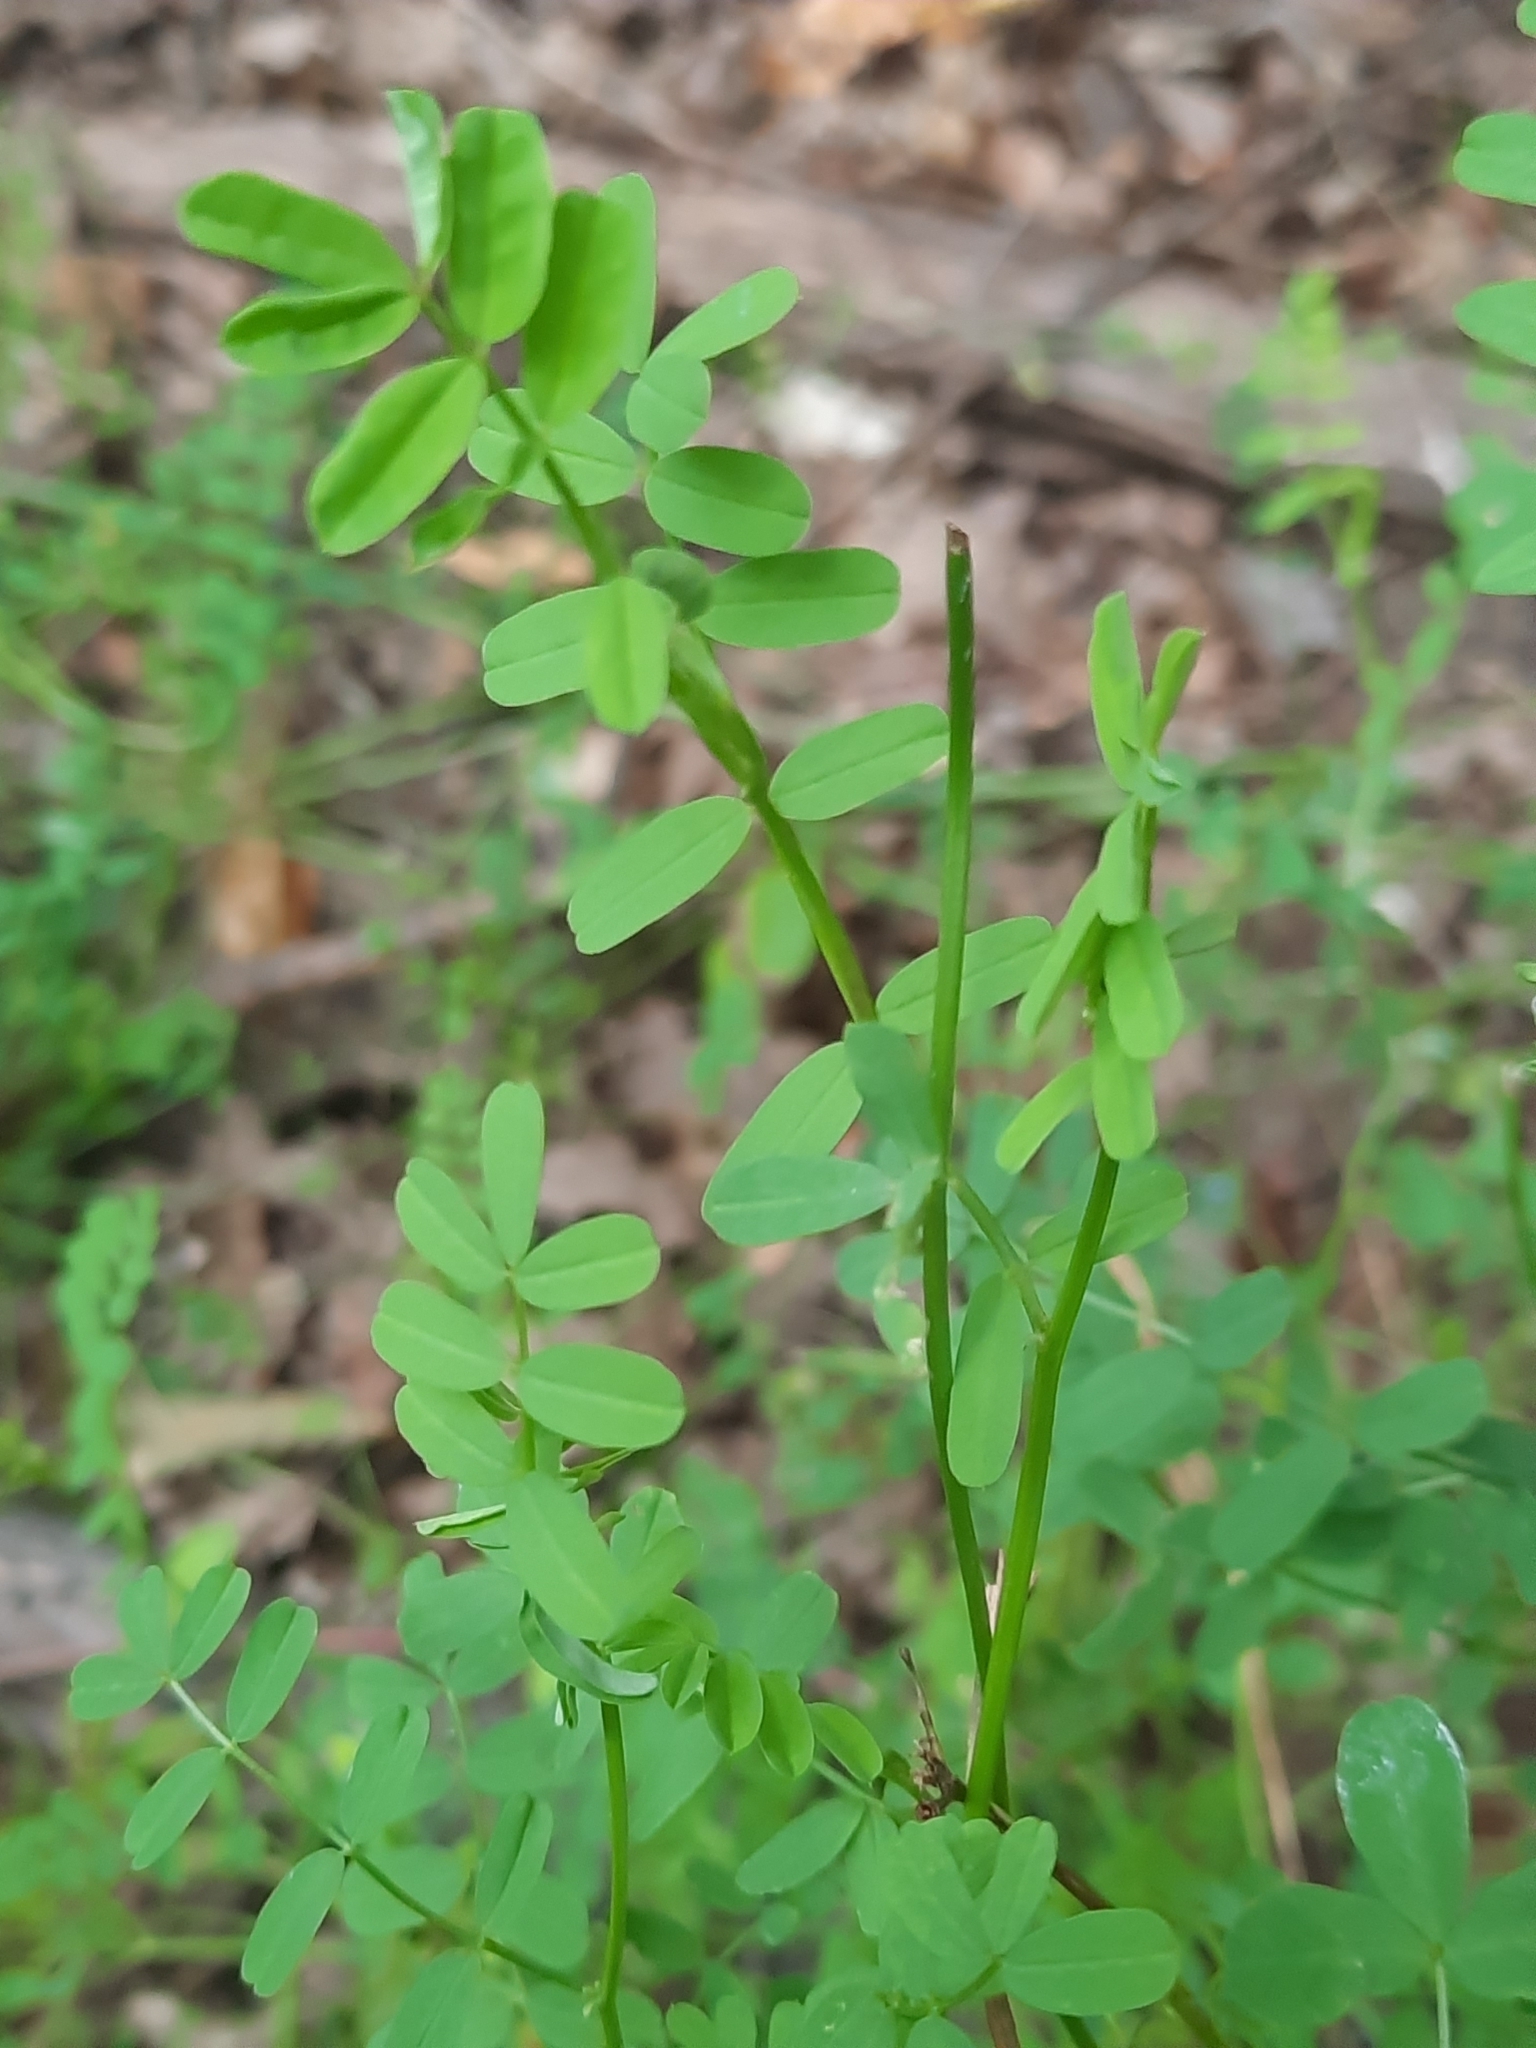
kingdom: Plantae
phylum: Tracheophyta
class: Magnoliopsida
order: Fabales
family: Fabaceae
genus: Coronilla
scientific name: Coronilla varia
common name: Crownvetch
